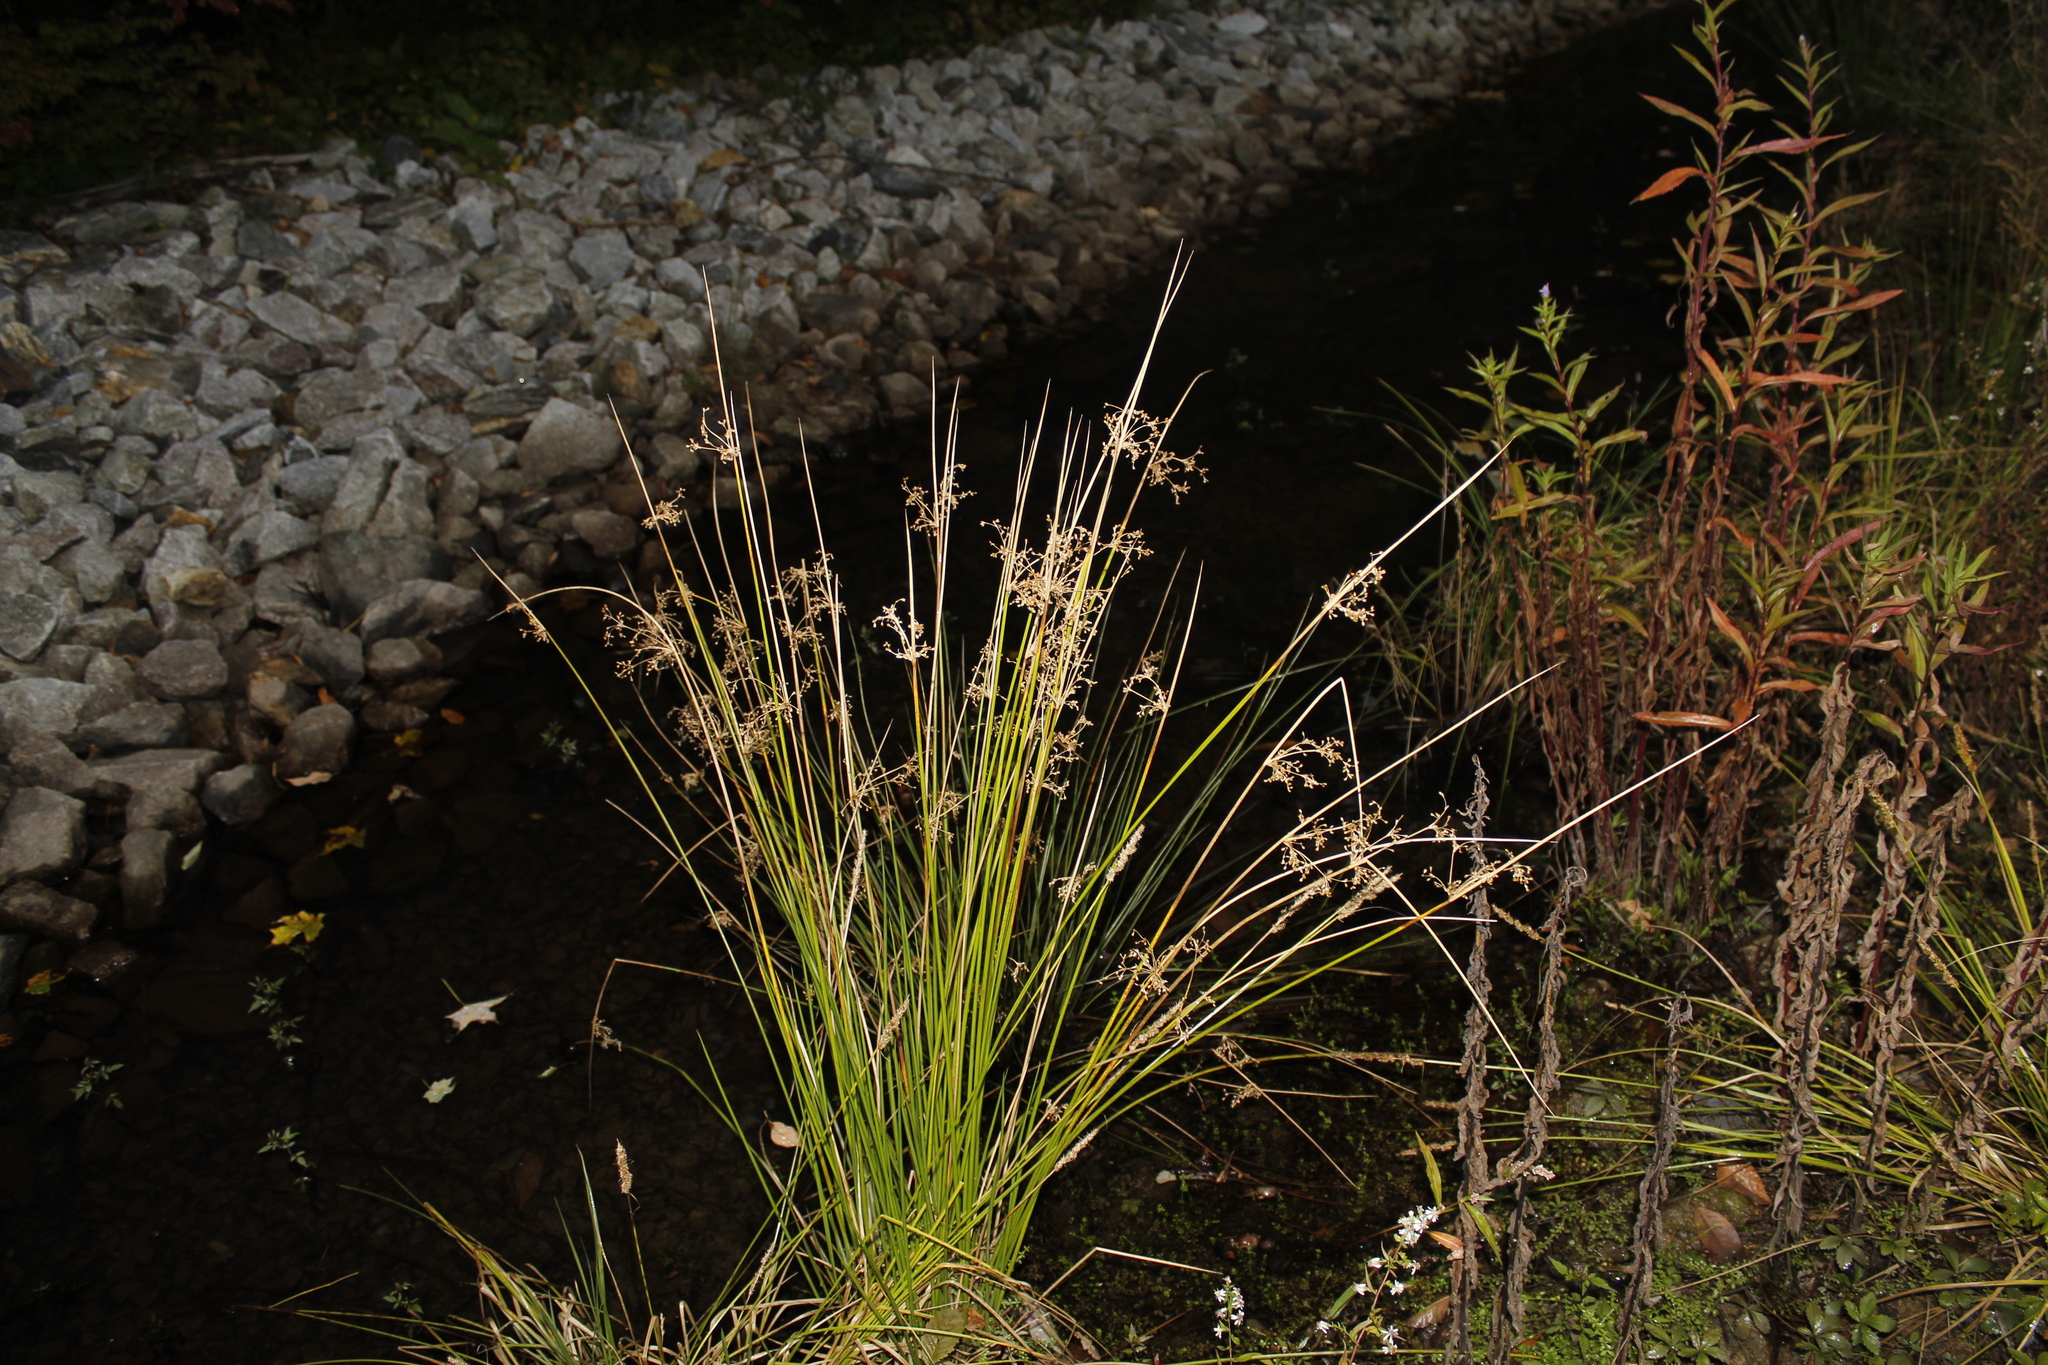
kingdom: Plantae
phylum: Tracheophyta
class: Liliopsida
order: Poales
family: Juncaceae
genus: Juncus
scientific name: Juncus effusus
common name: Soft rush
